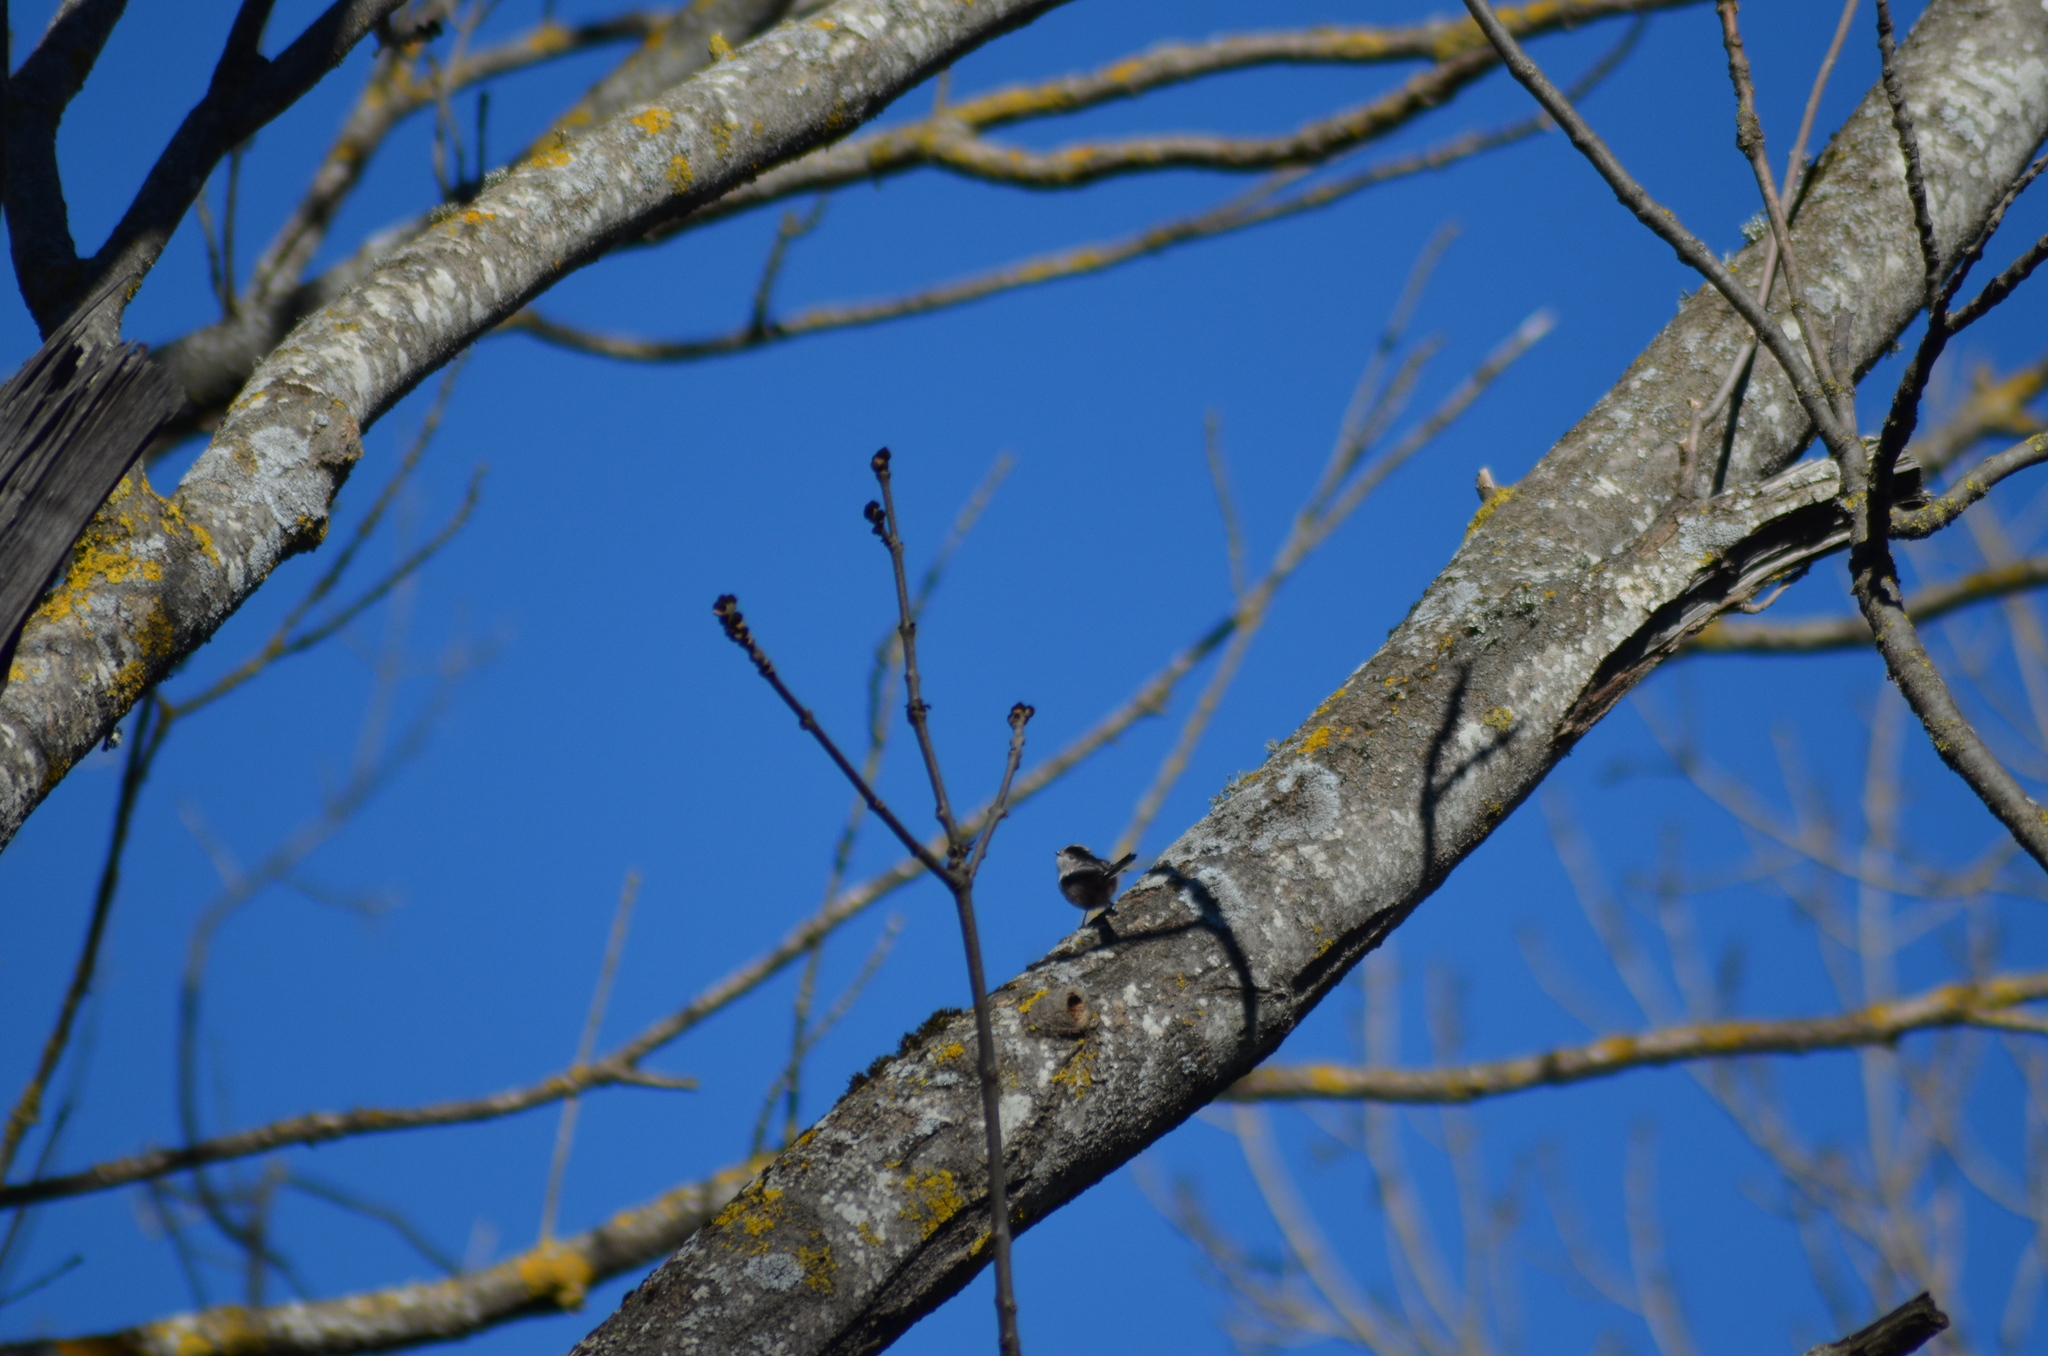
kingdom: Animalia
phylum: Chordata
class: Aves
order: Passeriformes
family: Aegithalidae
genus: Aegithalos
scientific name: Aegithalos caudatus
